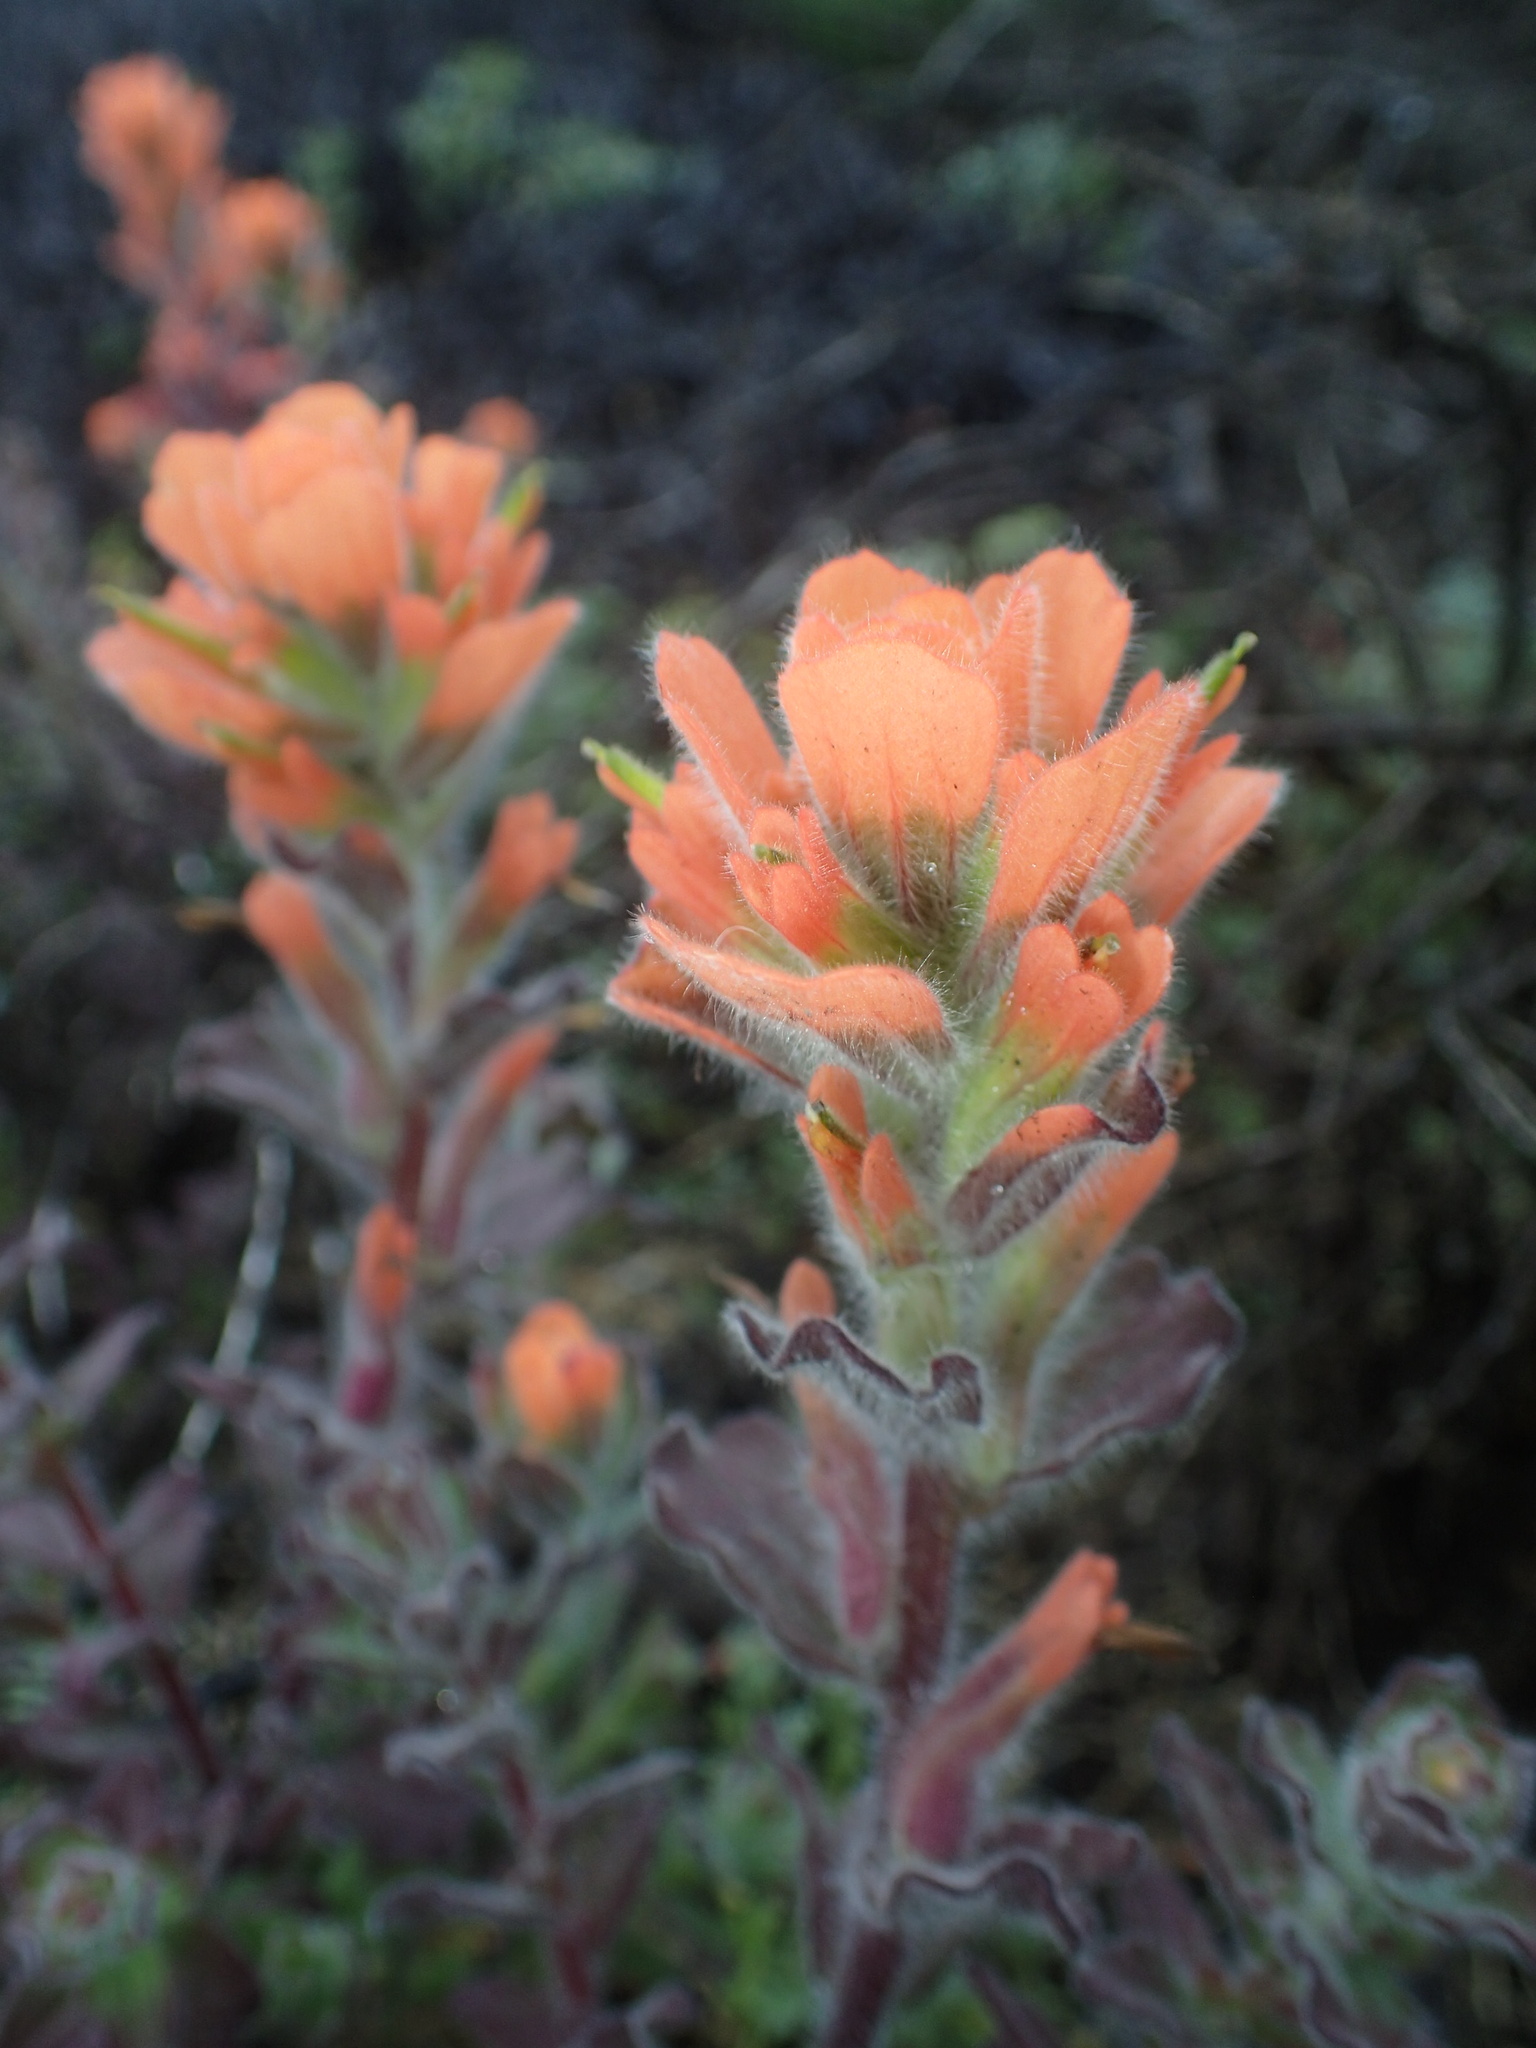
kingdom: Plantae
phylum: Tracheophyta
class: Magnoliopsida
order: Lamiales
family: Orobanchaceae
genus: Castilleja
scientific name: Castilleja latifolia
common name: Monterey indian paintbrush
